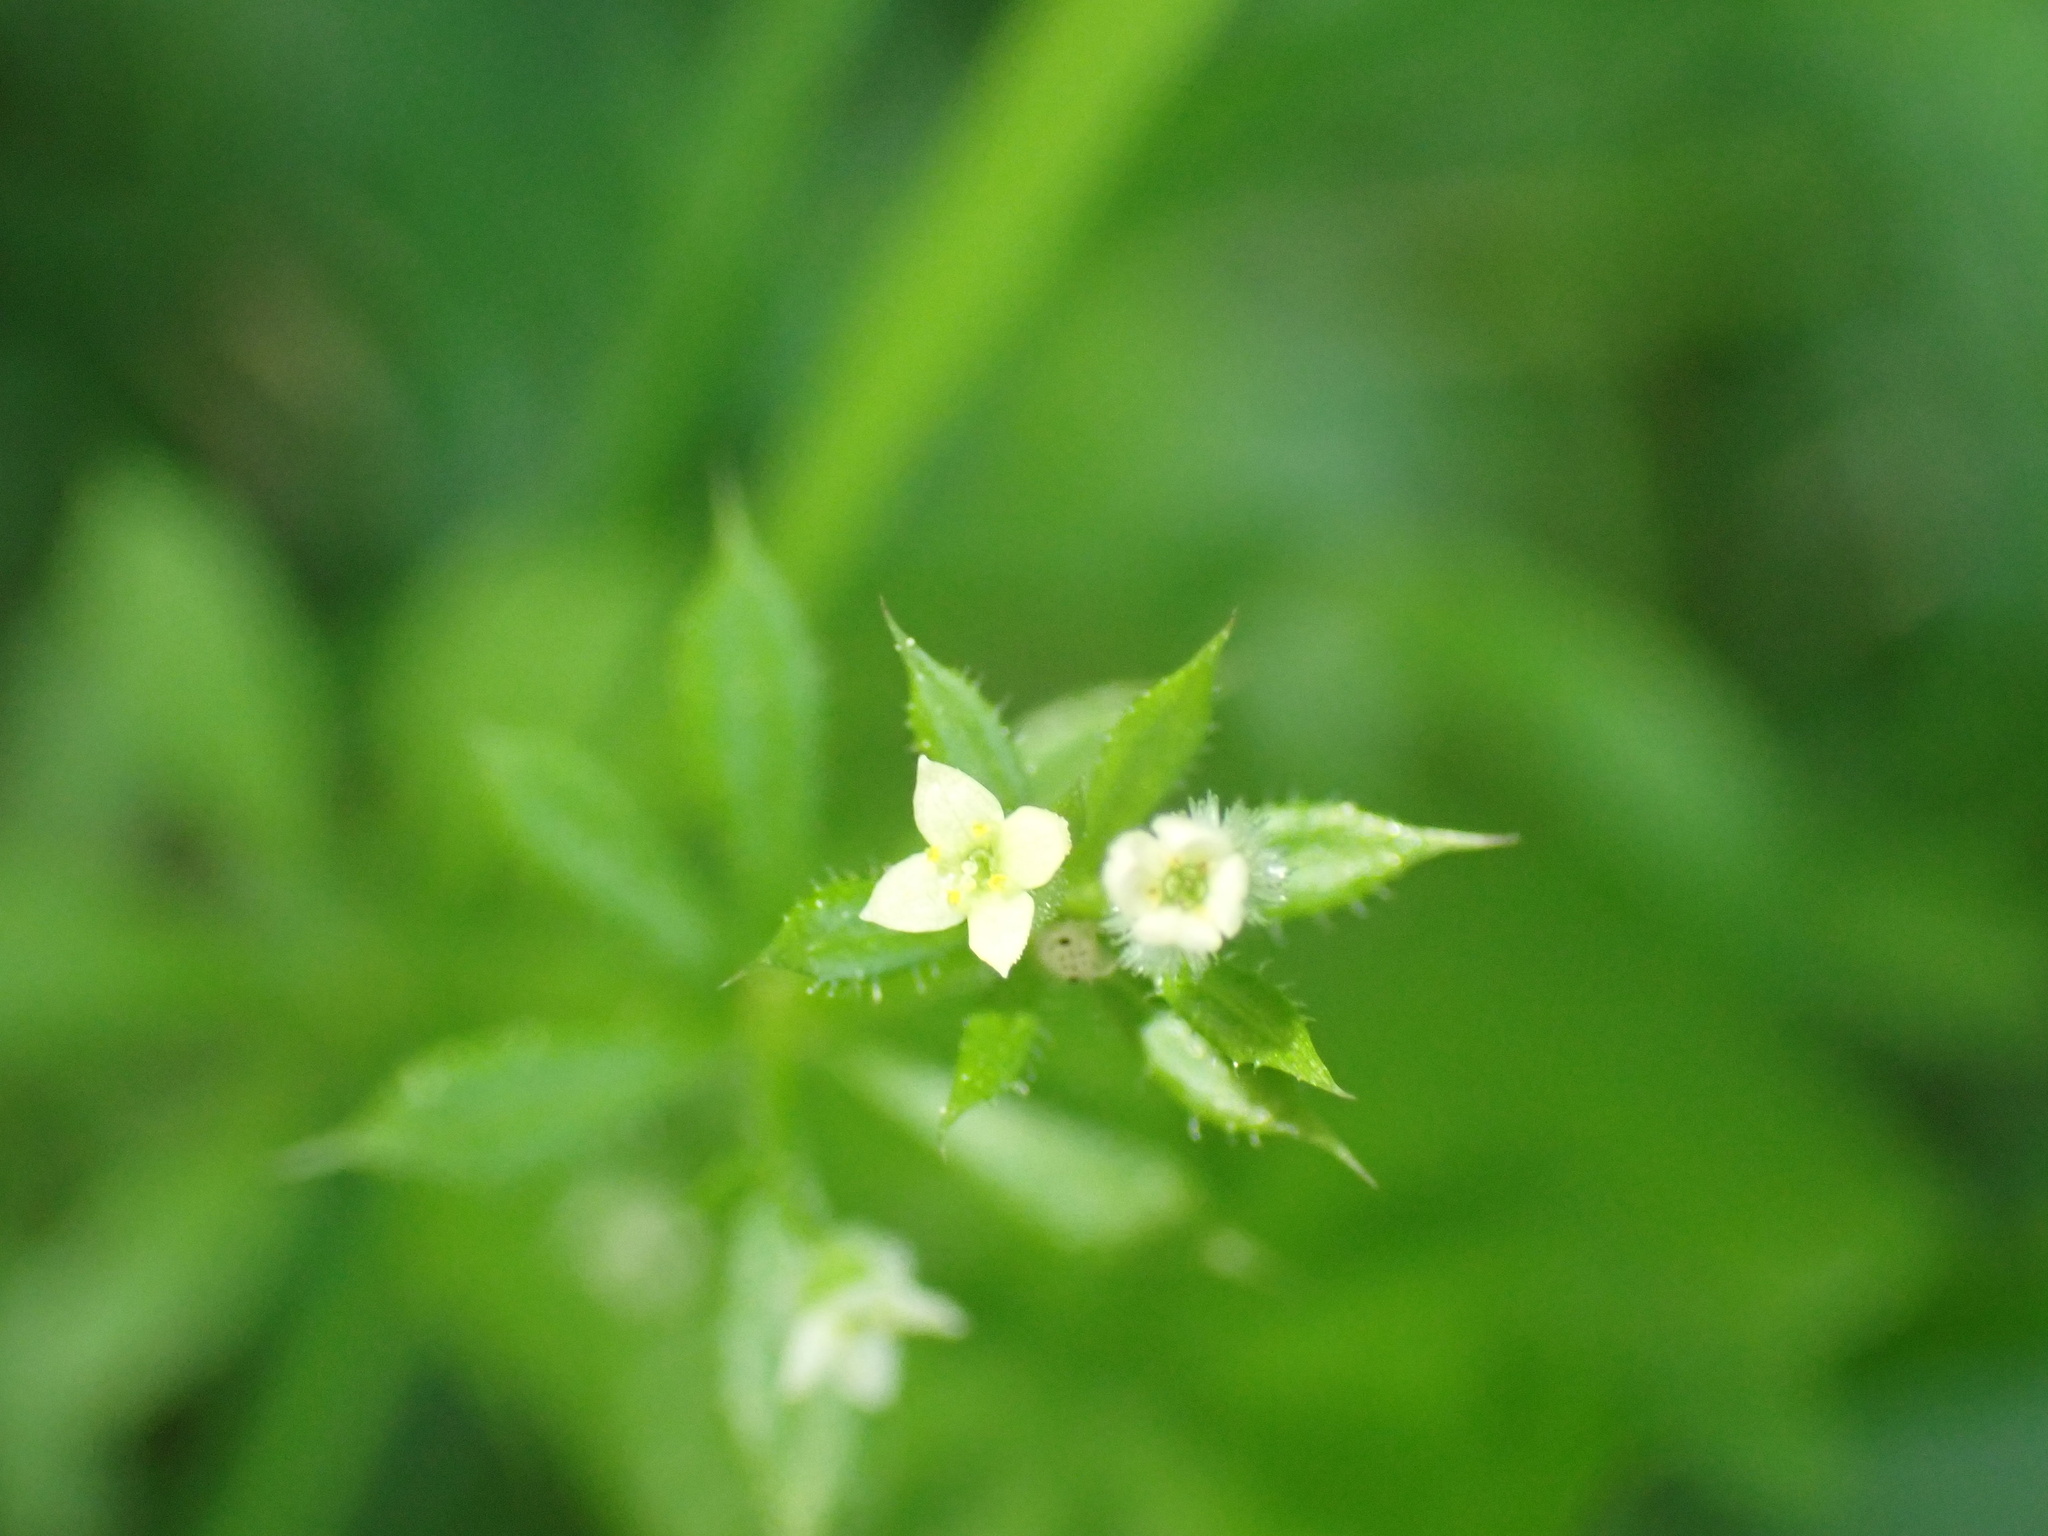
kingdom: Plantae
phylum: Tracheophyta
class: Magnoliopsida
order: Gentianales
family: Rubiaceae
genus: Galium
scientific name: Galium aparine
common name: Cleavers
